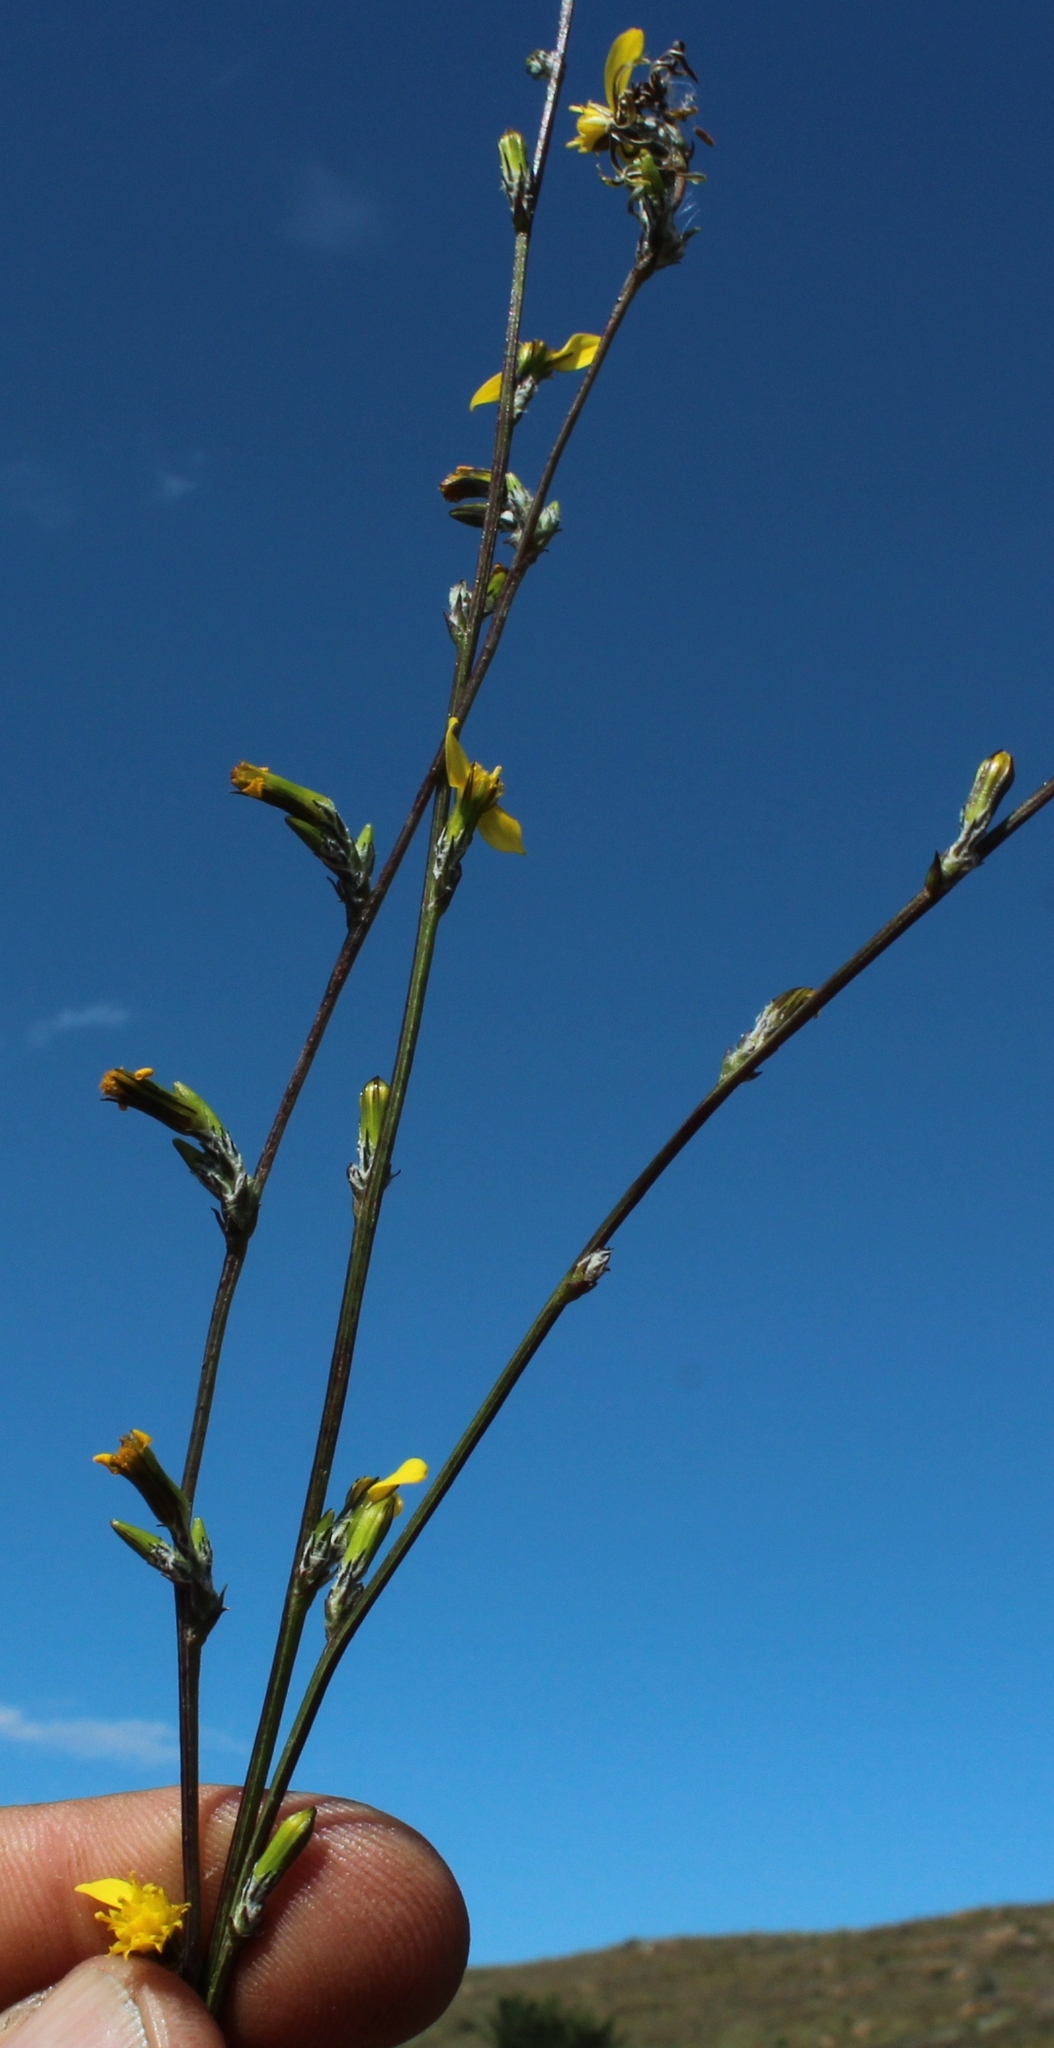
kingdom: Plantae
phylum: Tracheophyta
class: Magnoliopsida
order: Asterales
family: Asteraceae
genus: Senecio
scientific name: Senecio pubigerus
